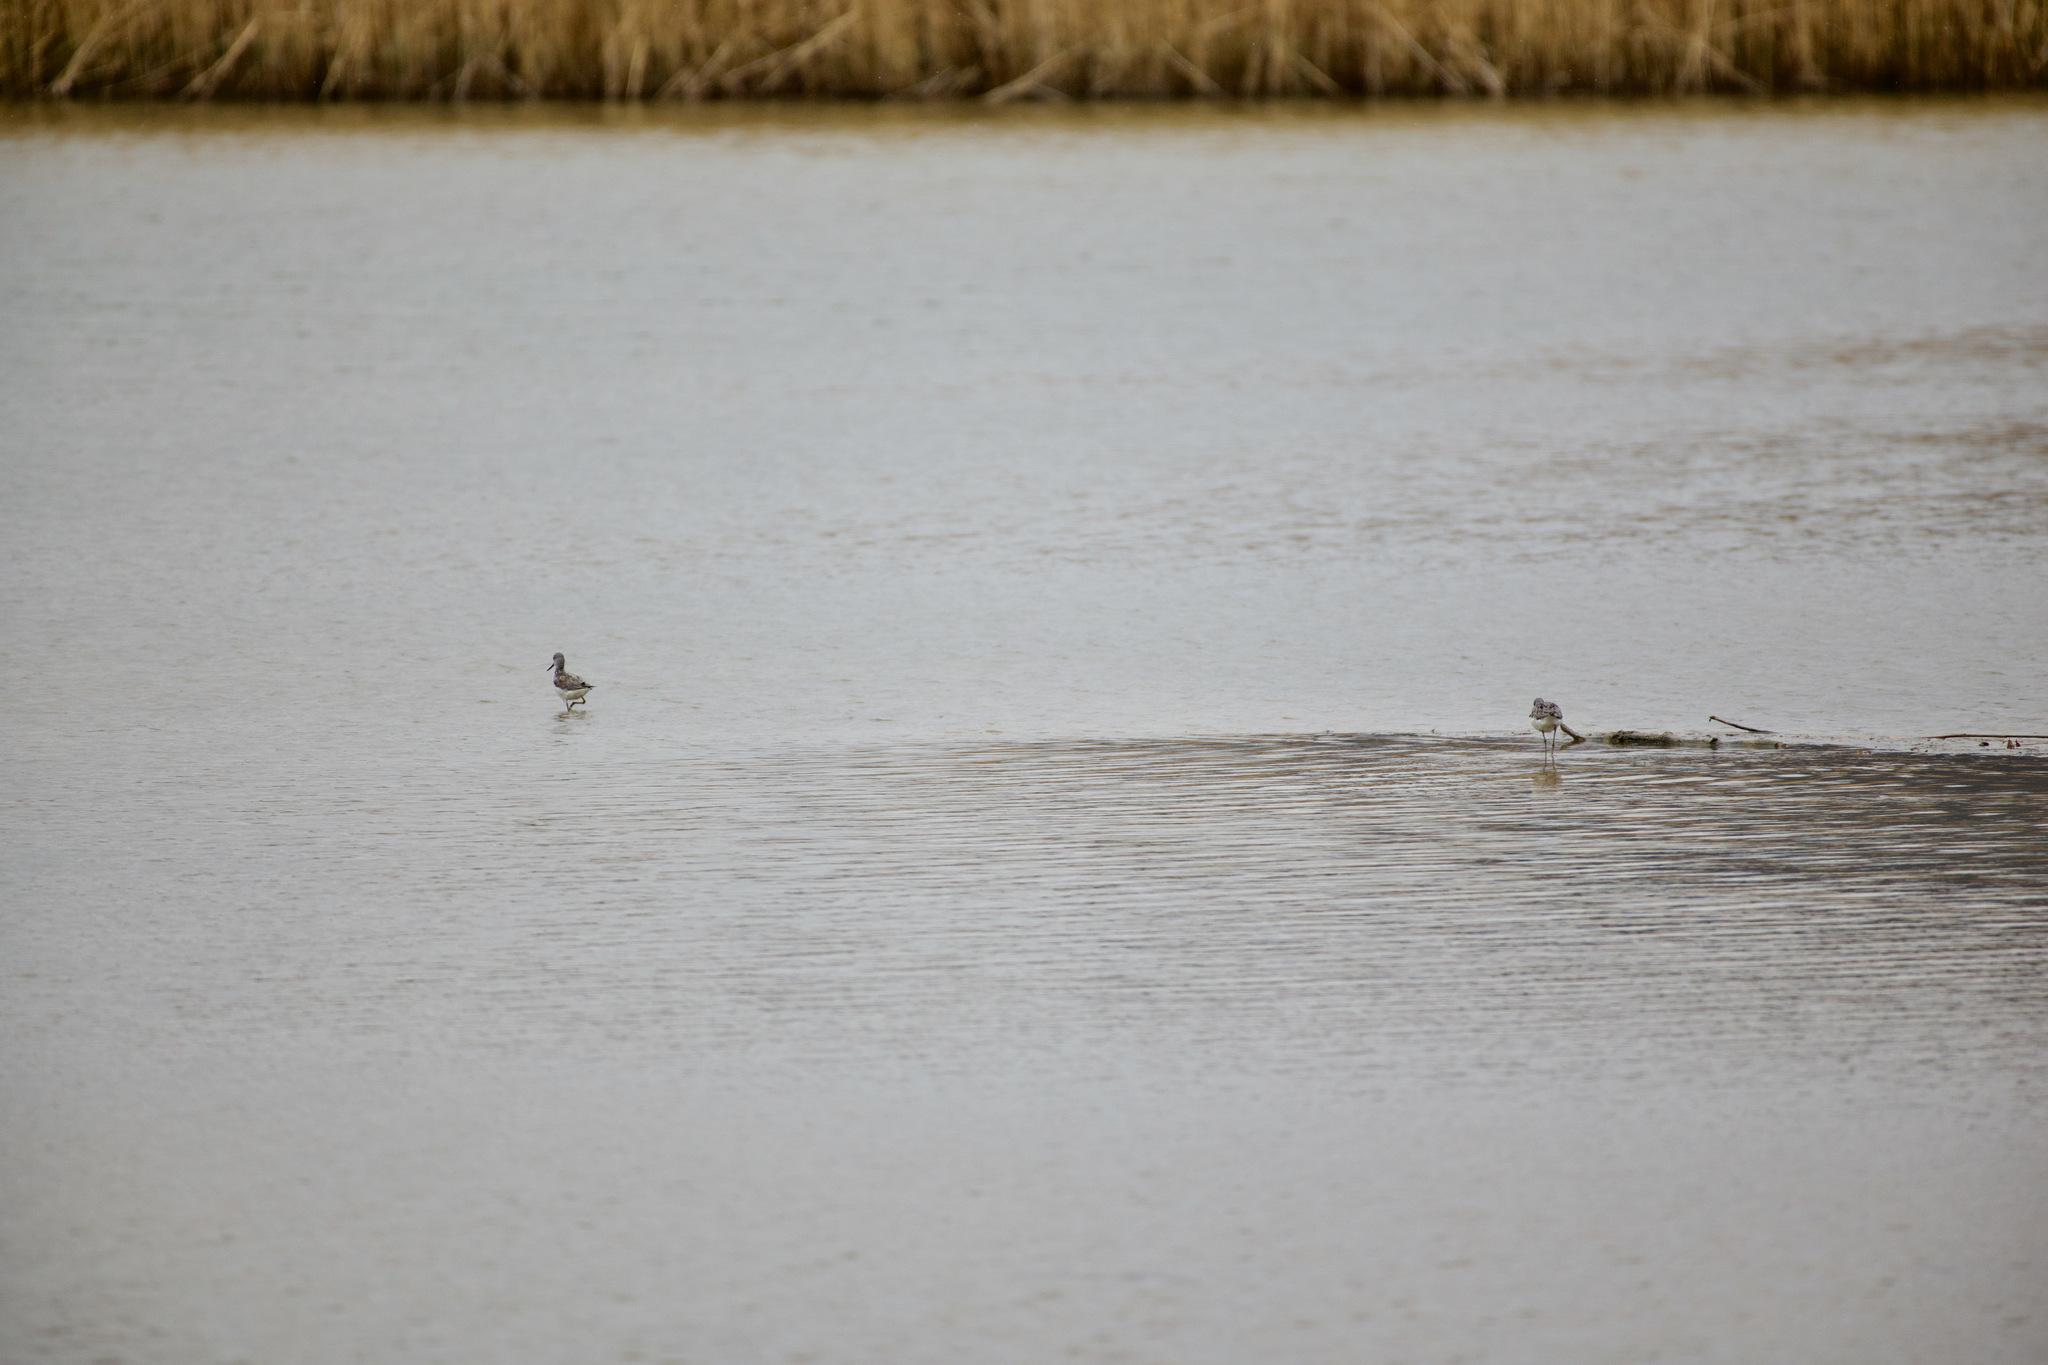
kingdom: Animalia
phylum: Chordata
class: Aves
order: Charadriiformes
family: Scolopacidae
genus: Tringa
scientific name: Tringa nebularia
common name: Common greenshank
